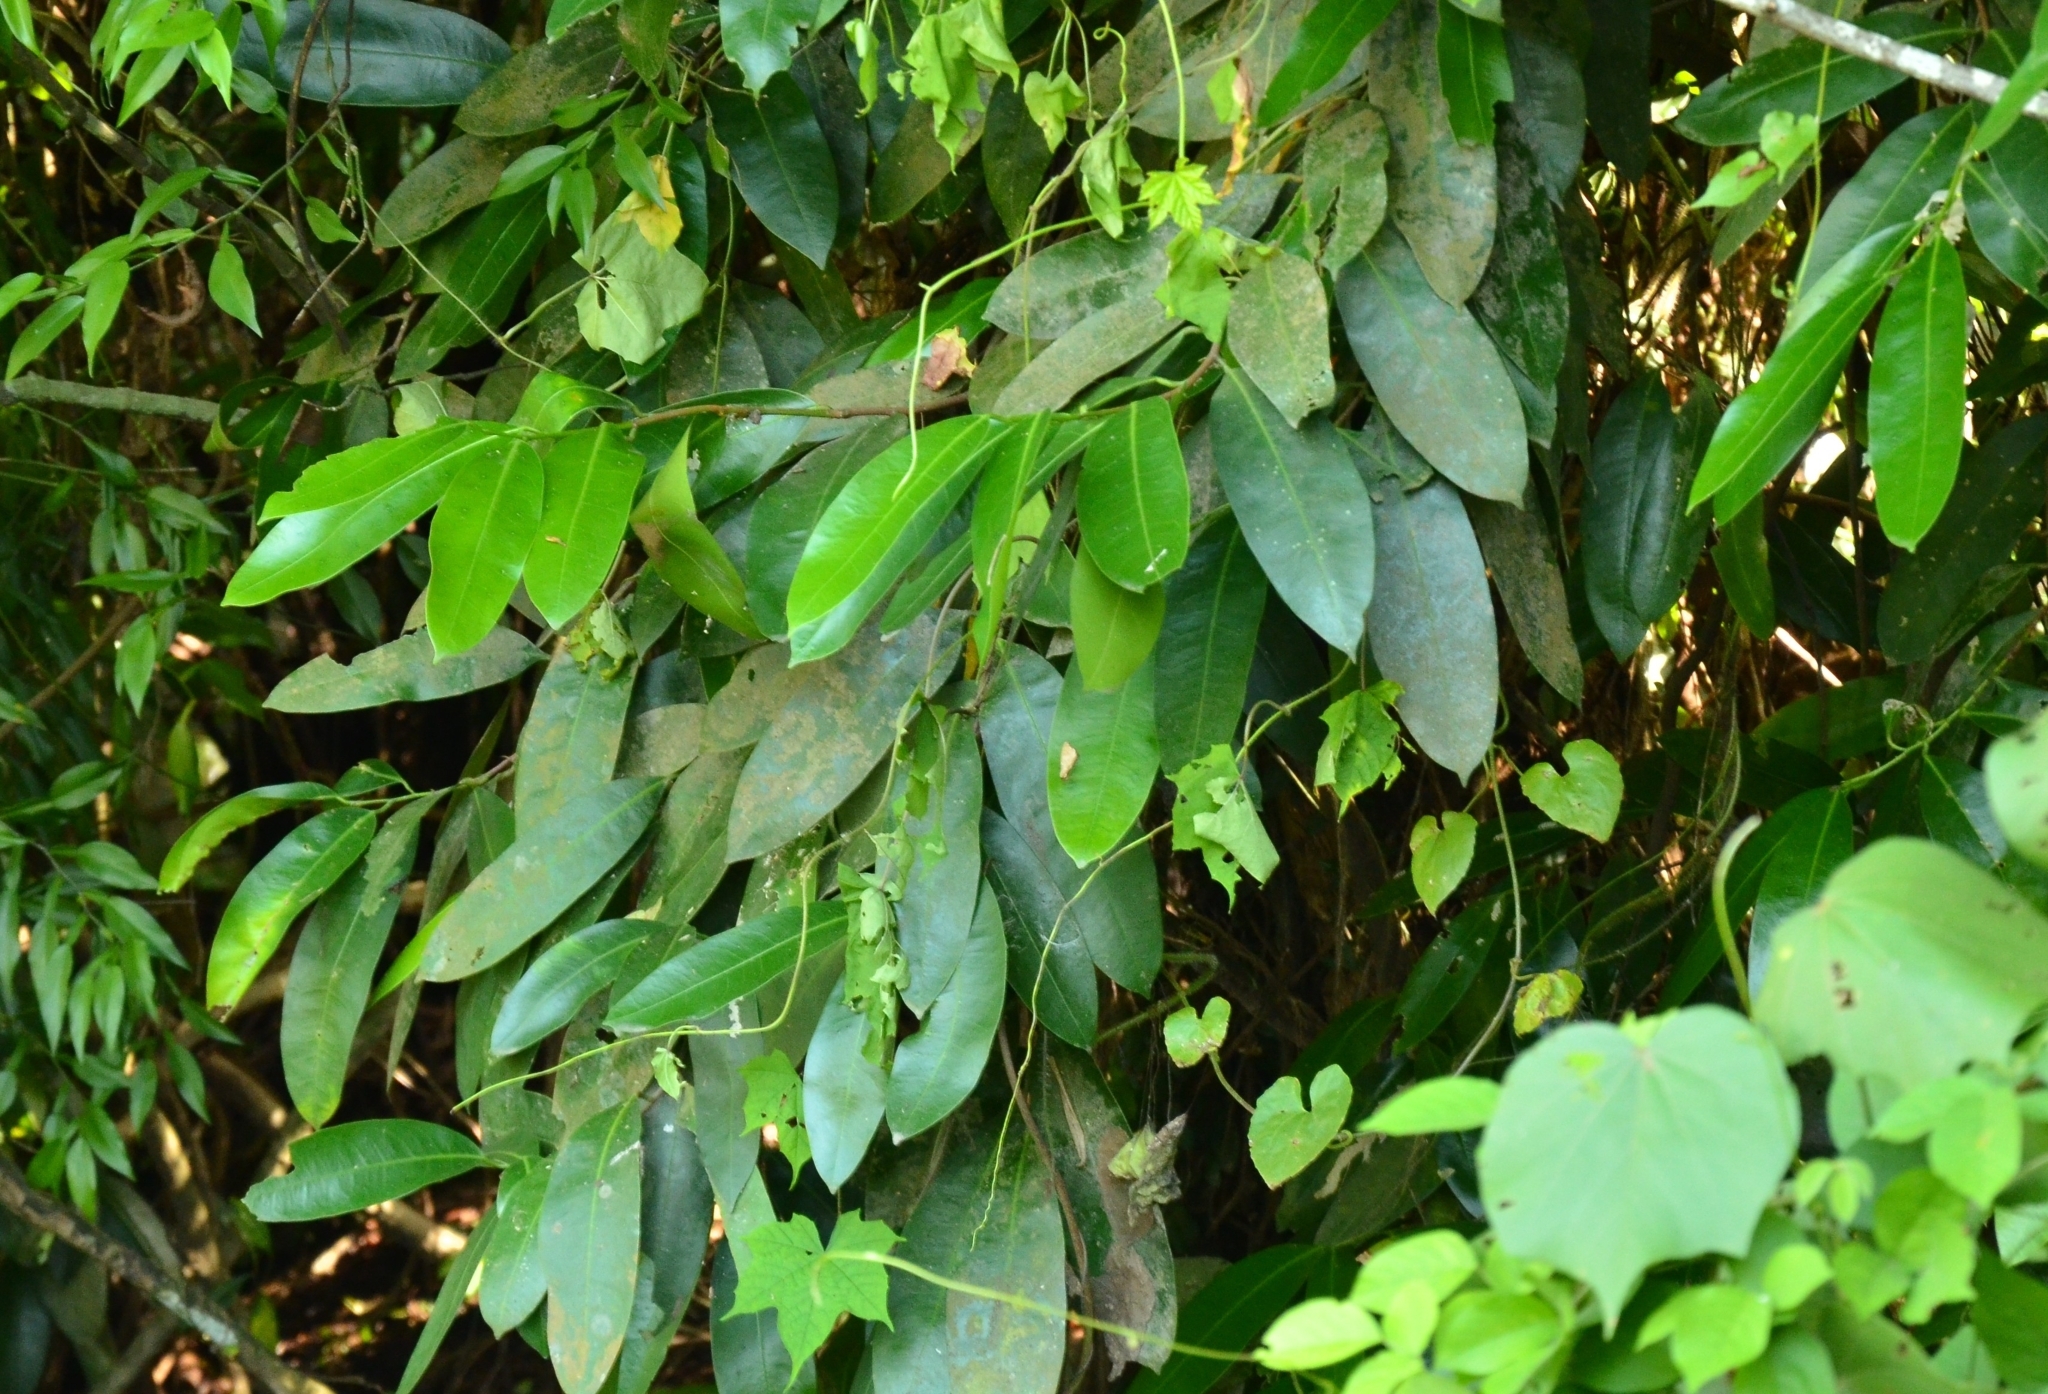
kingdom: Plantae
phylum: Tracheophyta
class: Magnoliopsida
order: Sapindales
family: Simaroubaceae
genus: Samadera
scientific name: Samadera indica
